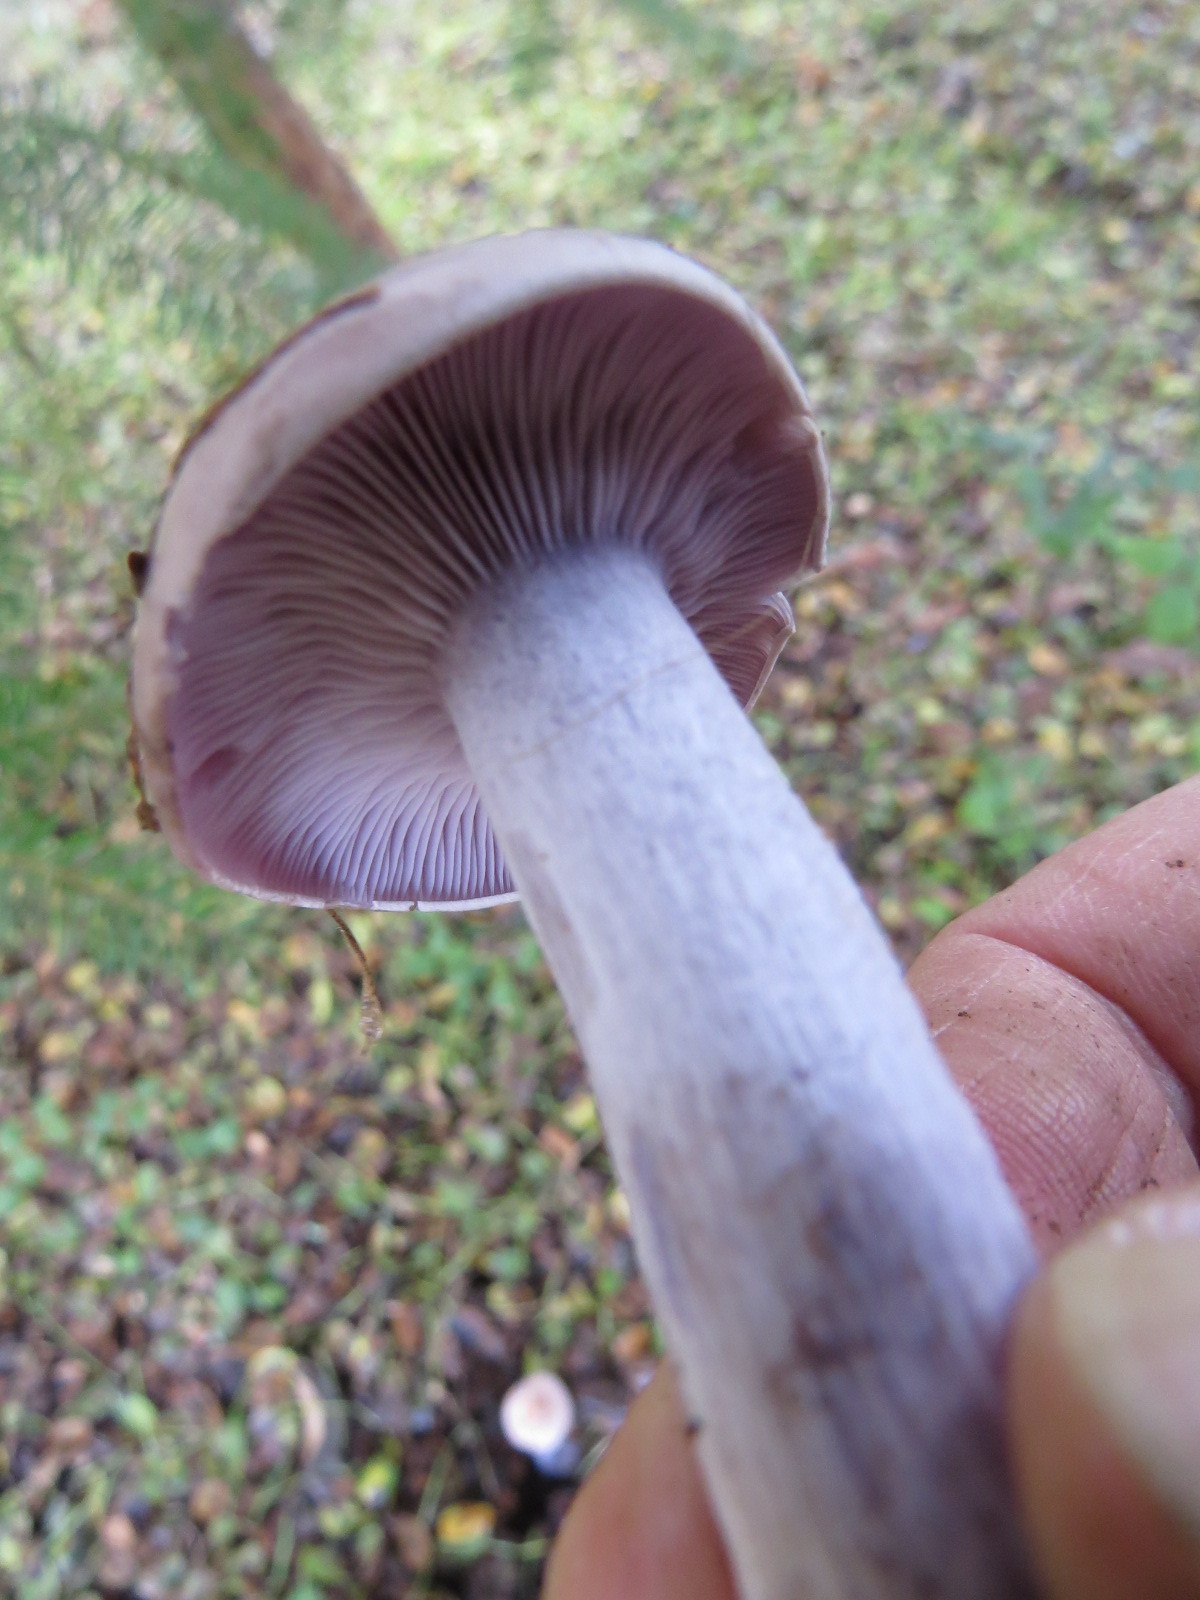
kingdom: Fungi
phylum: Basidiomycota
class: Agaricomycetes
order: Agaricales
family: Tricholomataceae
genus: Collybia
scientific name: Collybia
